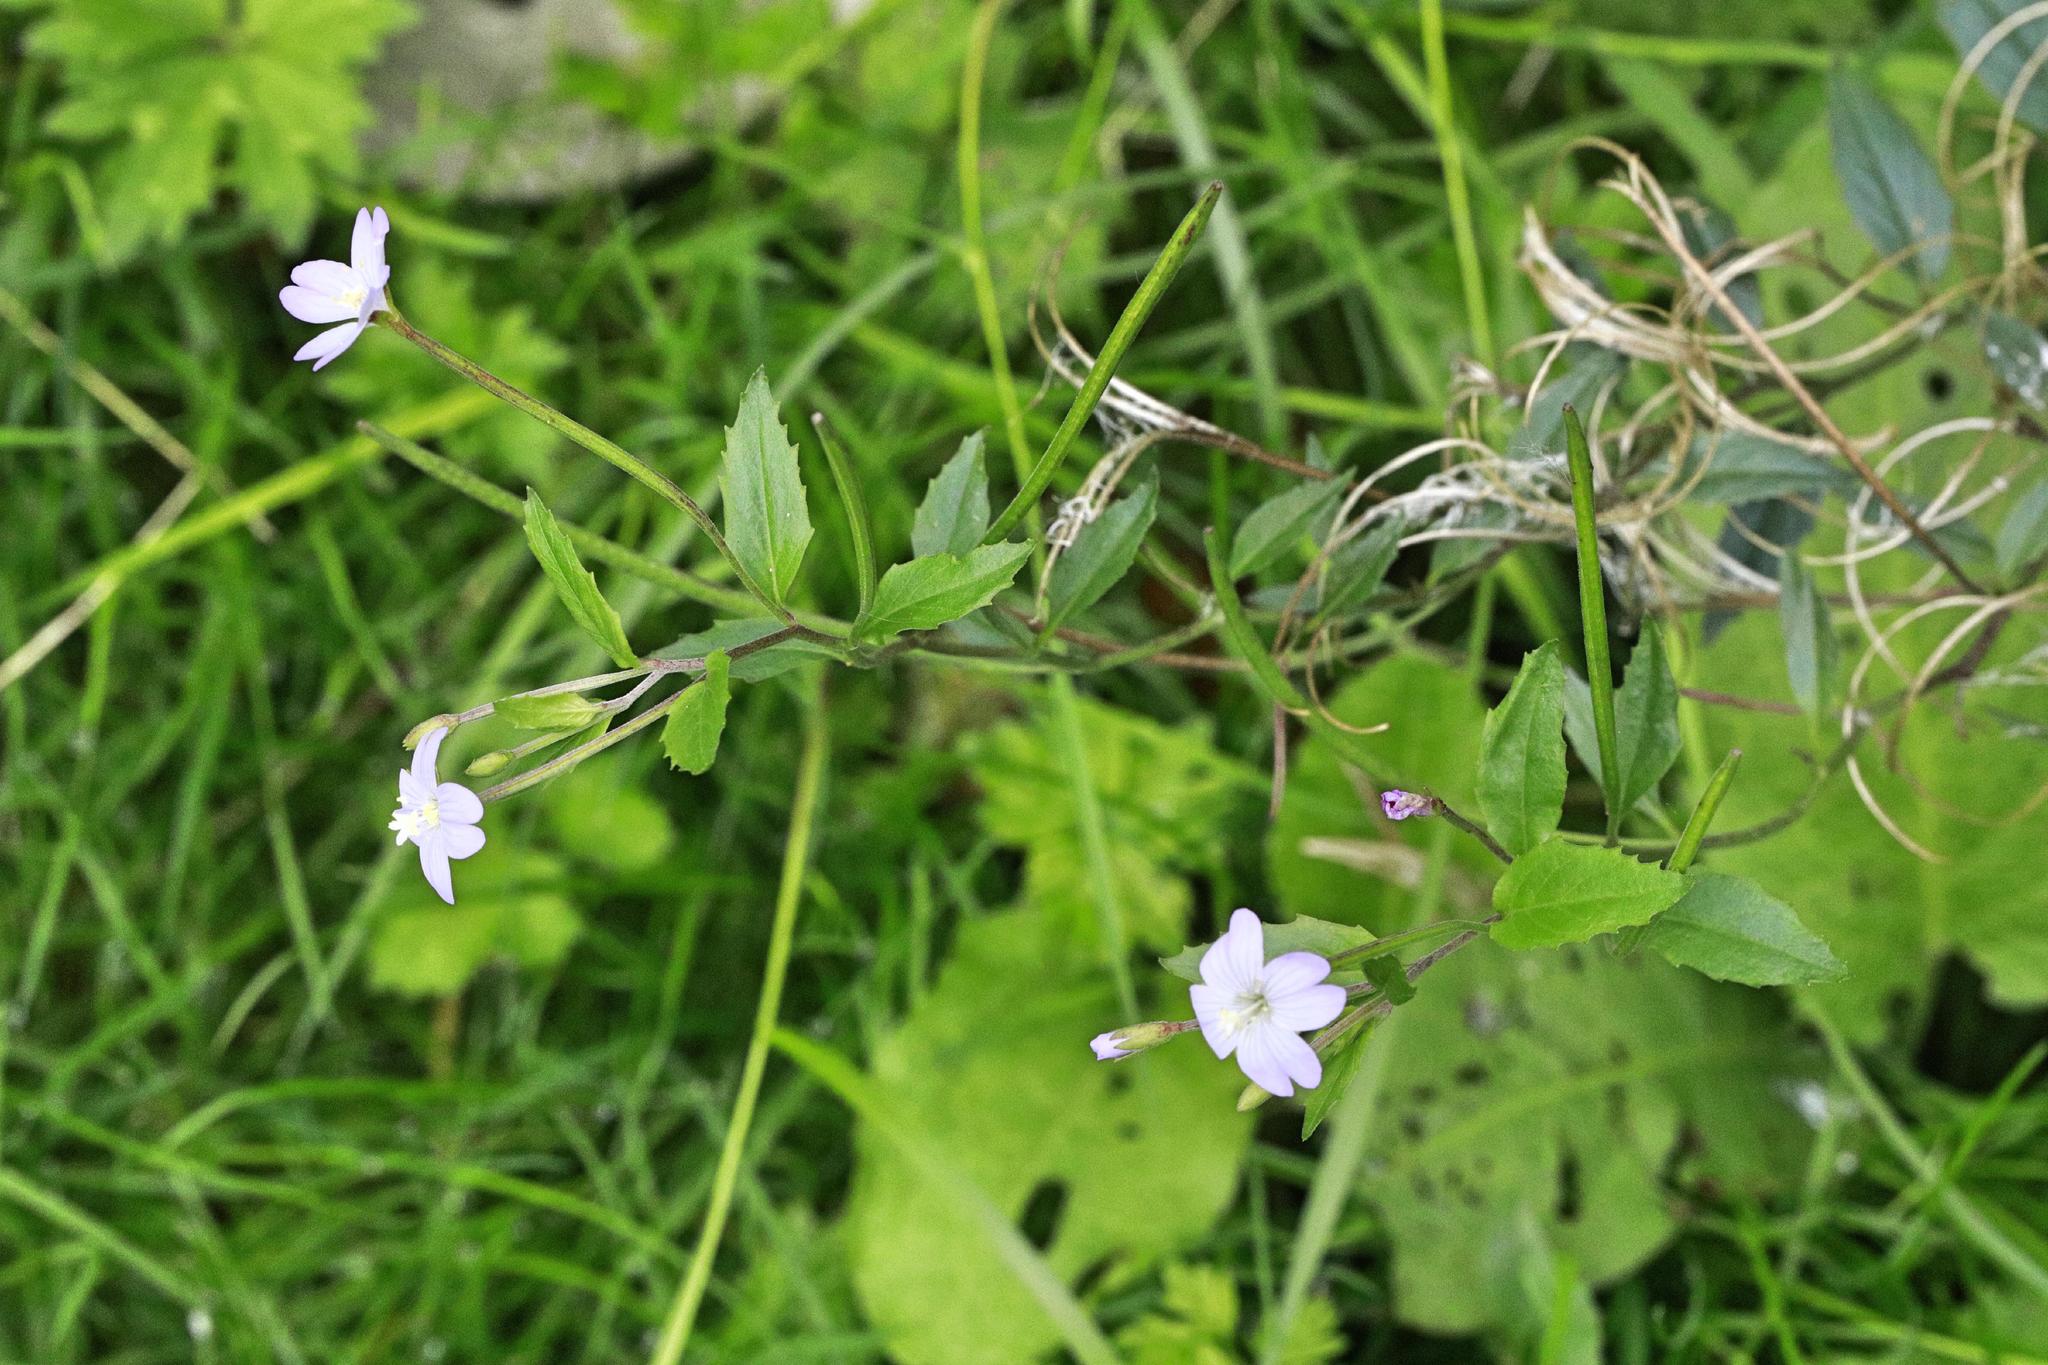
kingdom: Plantae
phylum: Tracheophyta
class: Magnoliopsida
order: Myrtales
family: Onagraceae
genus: Epilobium
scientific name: Epilobium montanum
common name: Broad-leaved willowherb
